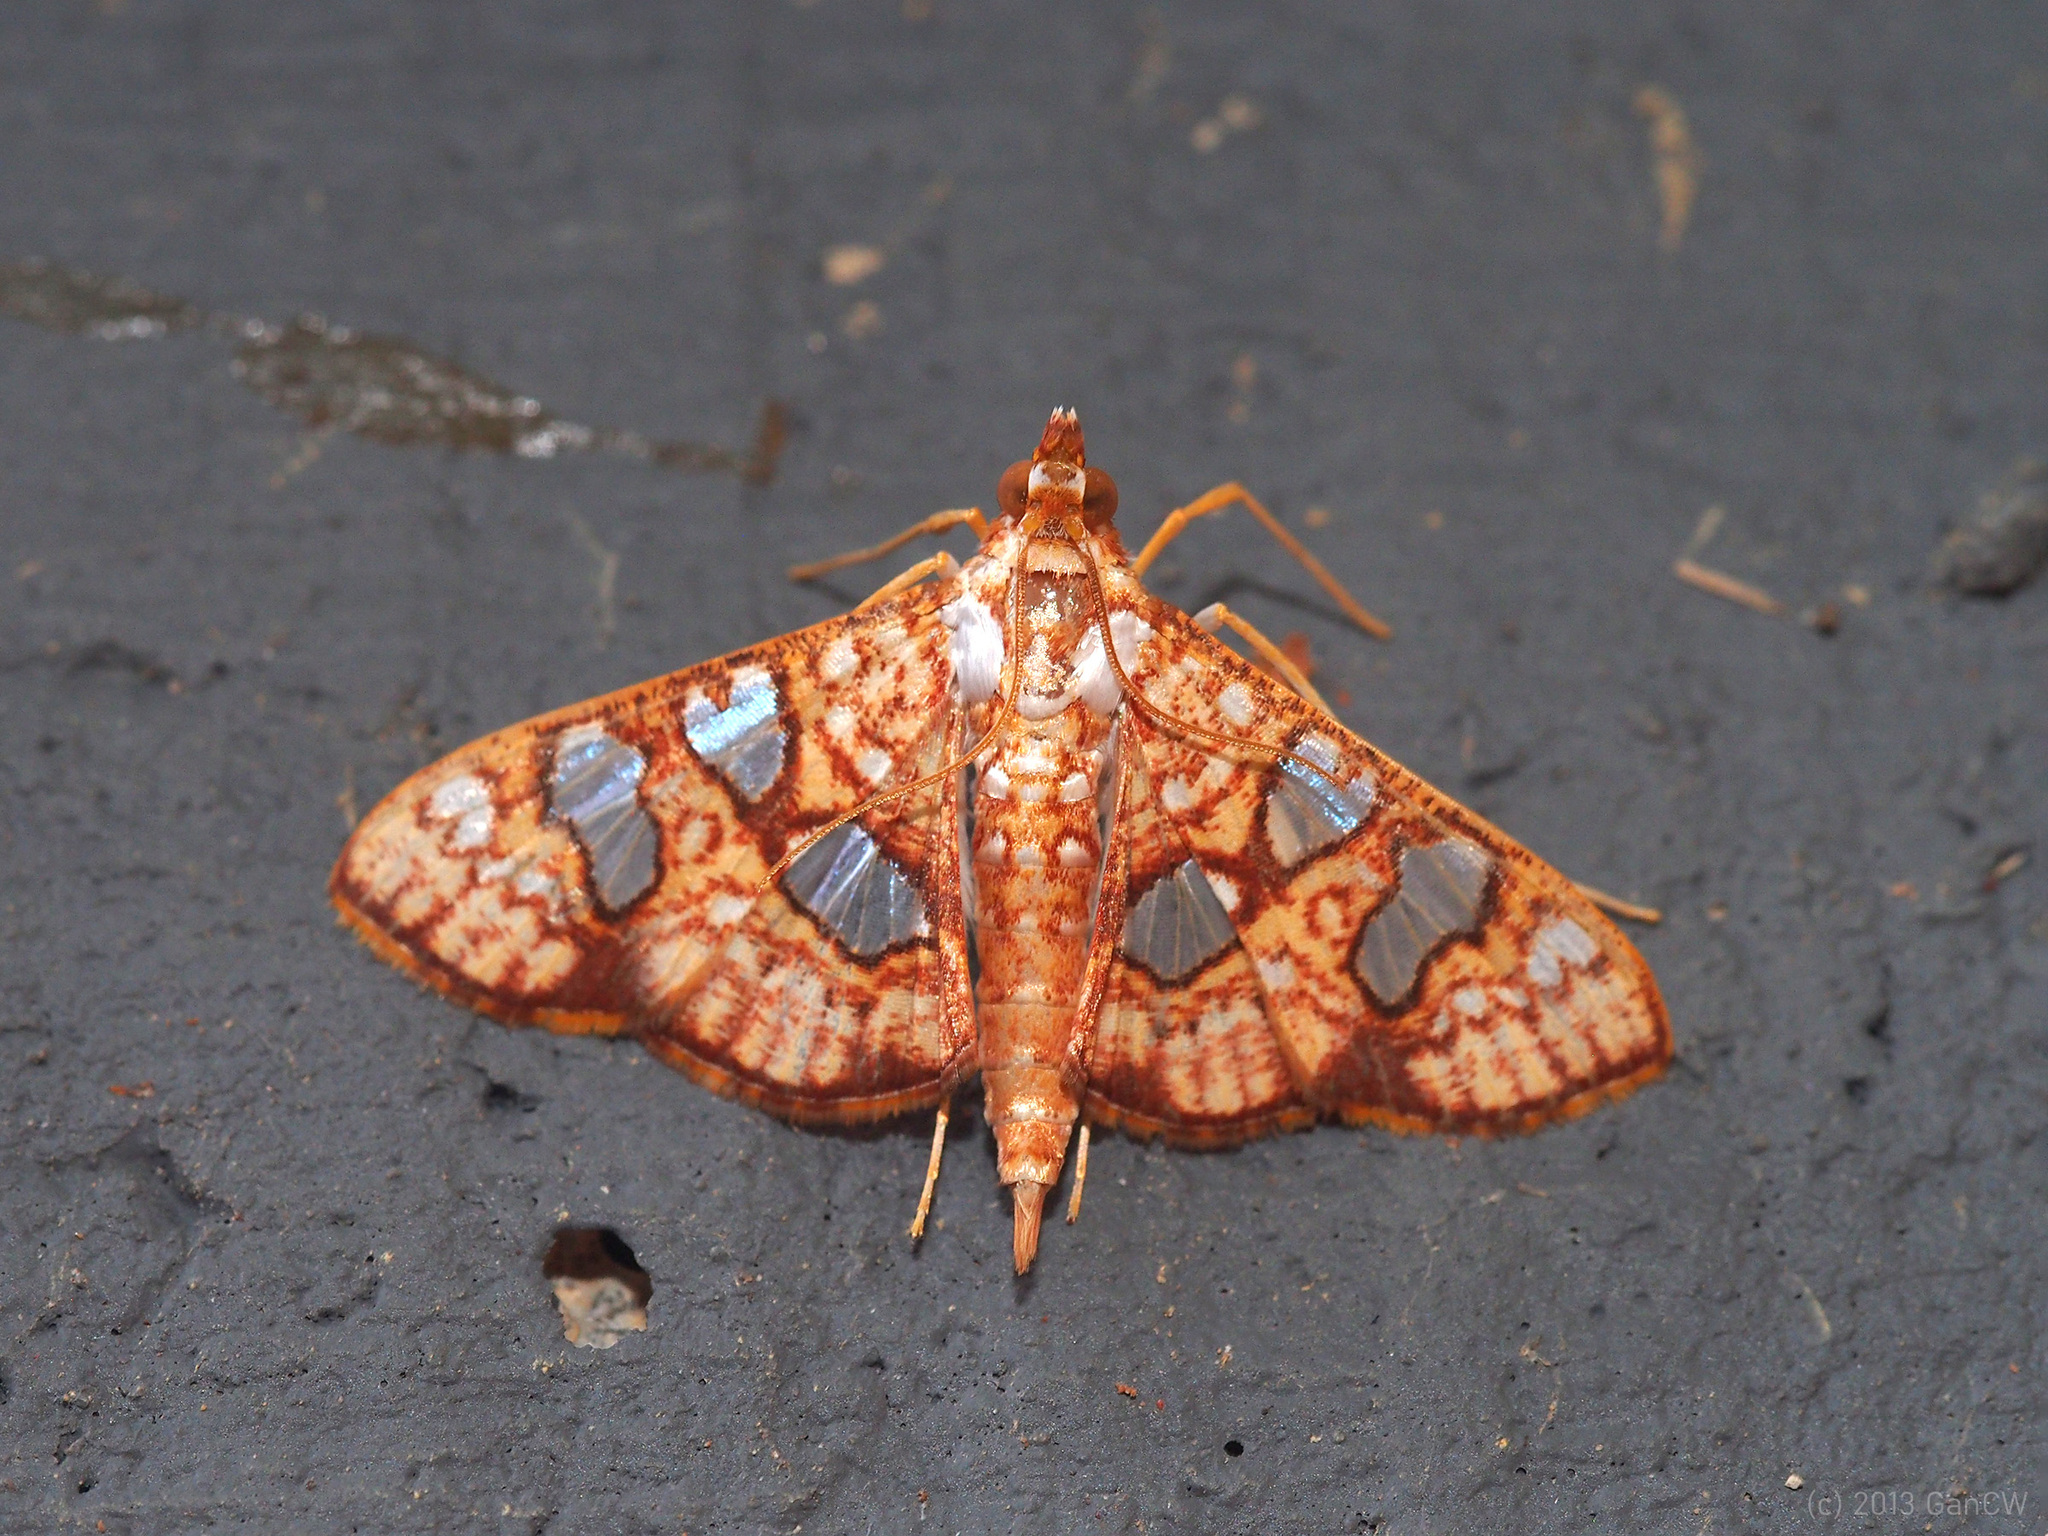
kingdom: Animalia
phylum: Arthropoda
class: Insecta
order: Lepidoptera
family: Crambidae
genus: Glyphodes
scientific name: Glyphodes canthusalis
